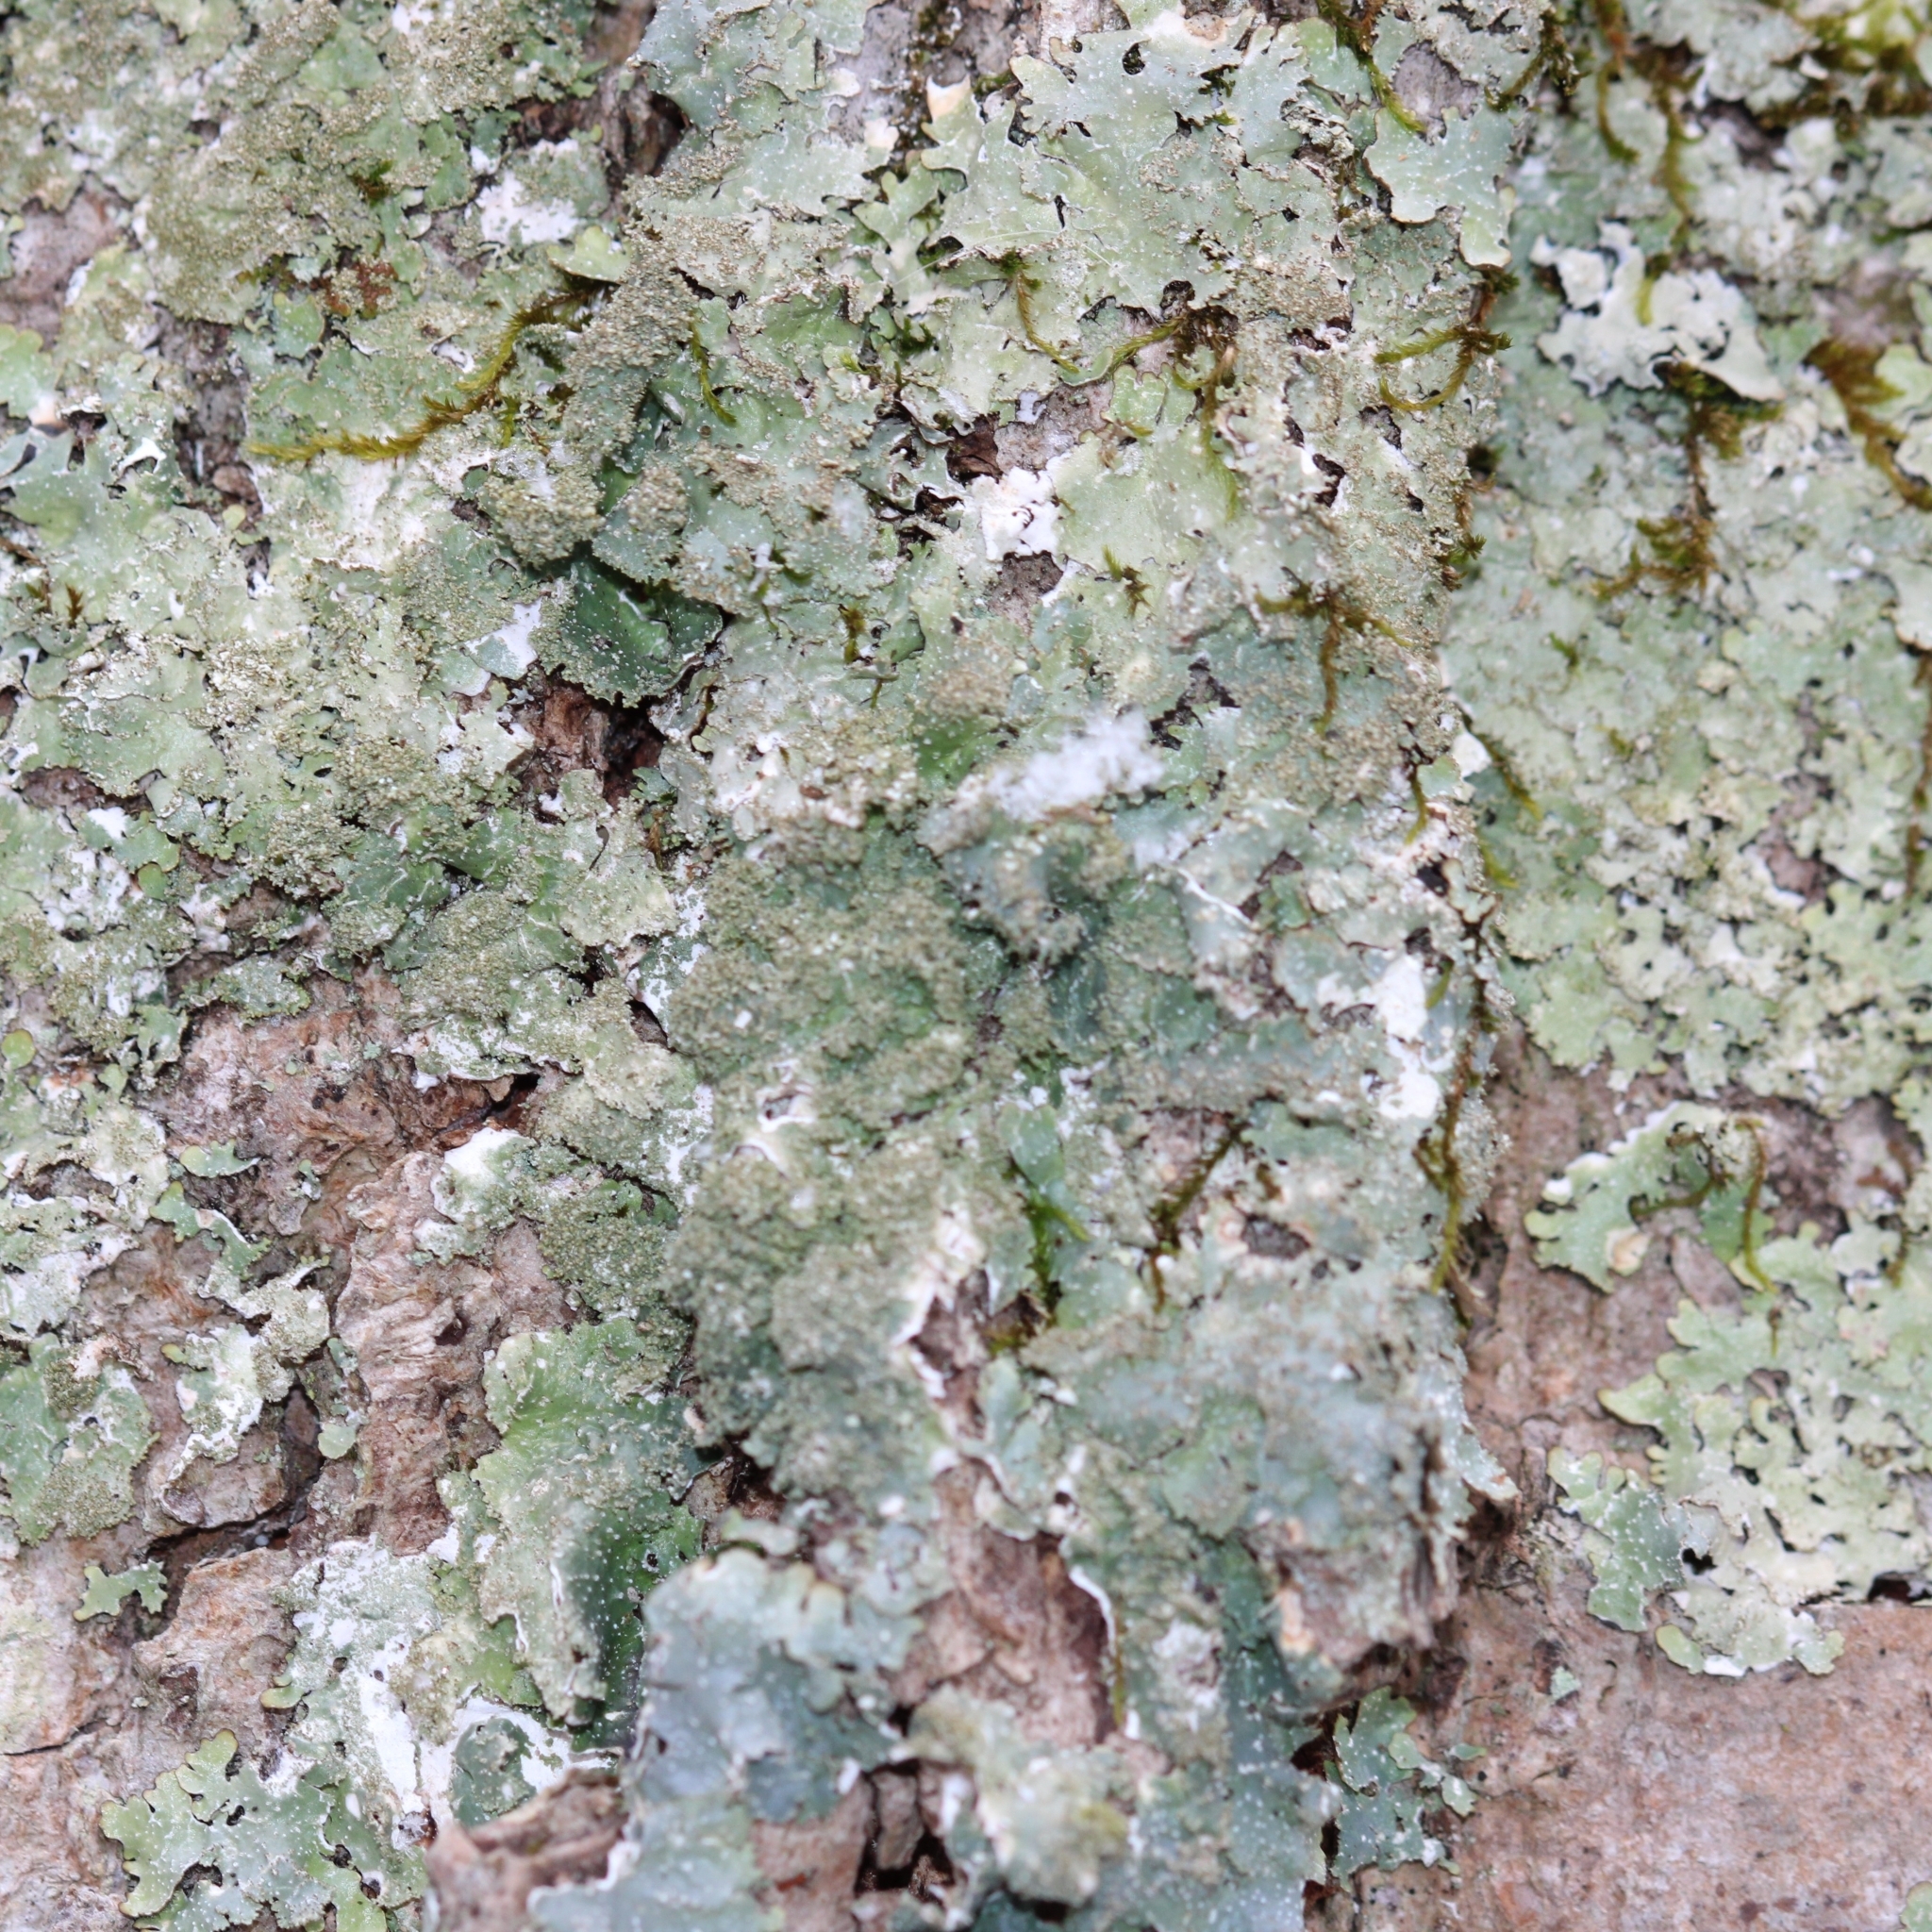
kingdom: Fungi
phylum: Ascomycota
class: Lecanoromycetes
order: Lecanorales
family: Parmeliaceae
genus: Punctelia
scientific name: Punctelia rudecta
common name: Rough speckled shield lichen
